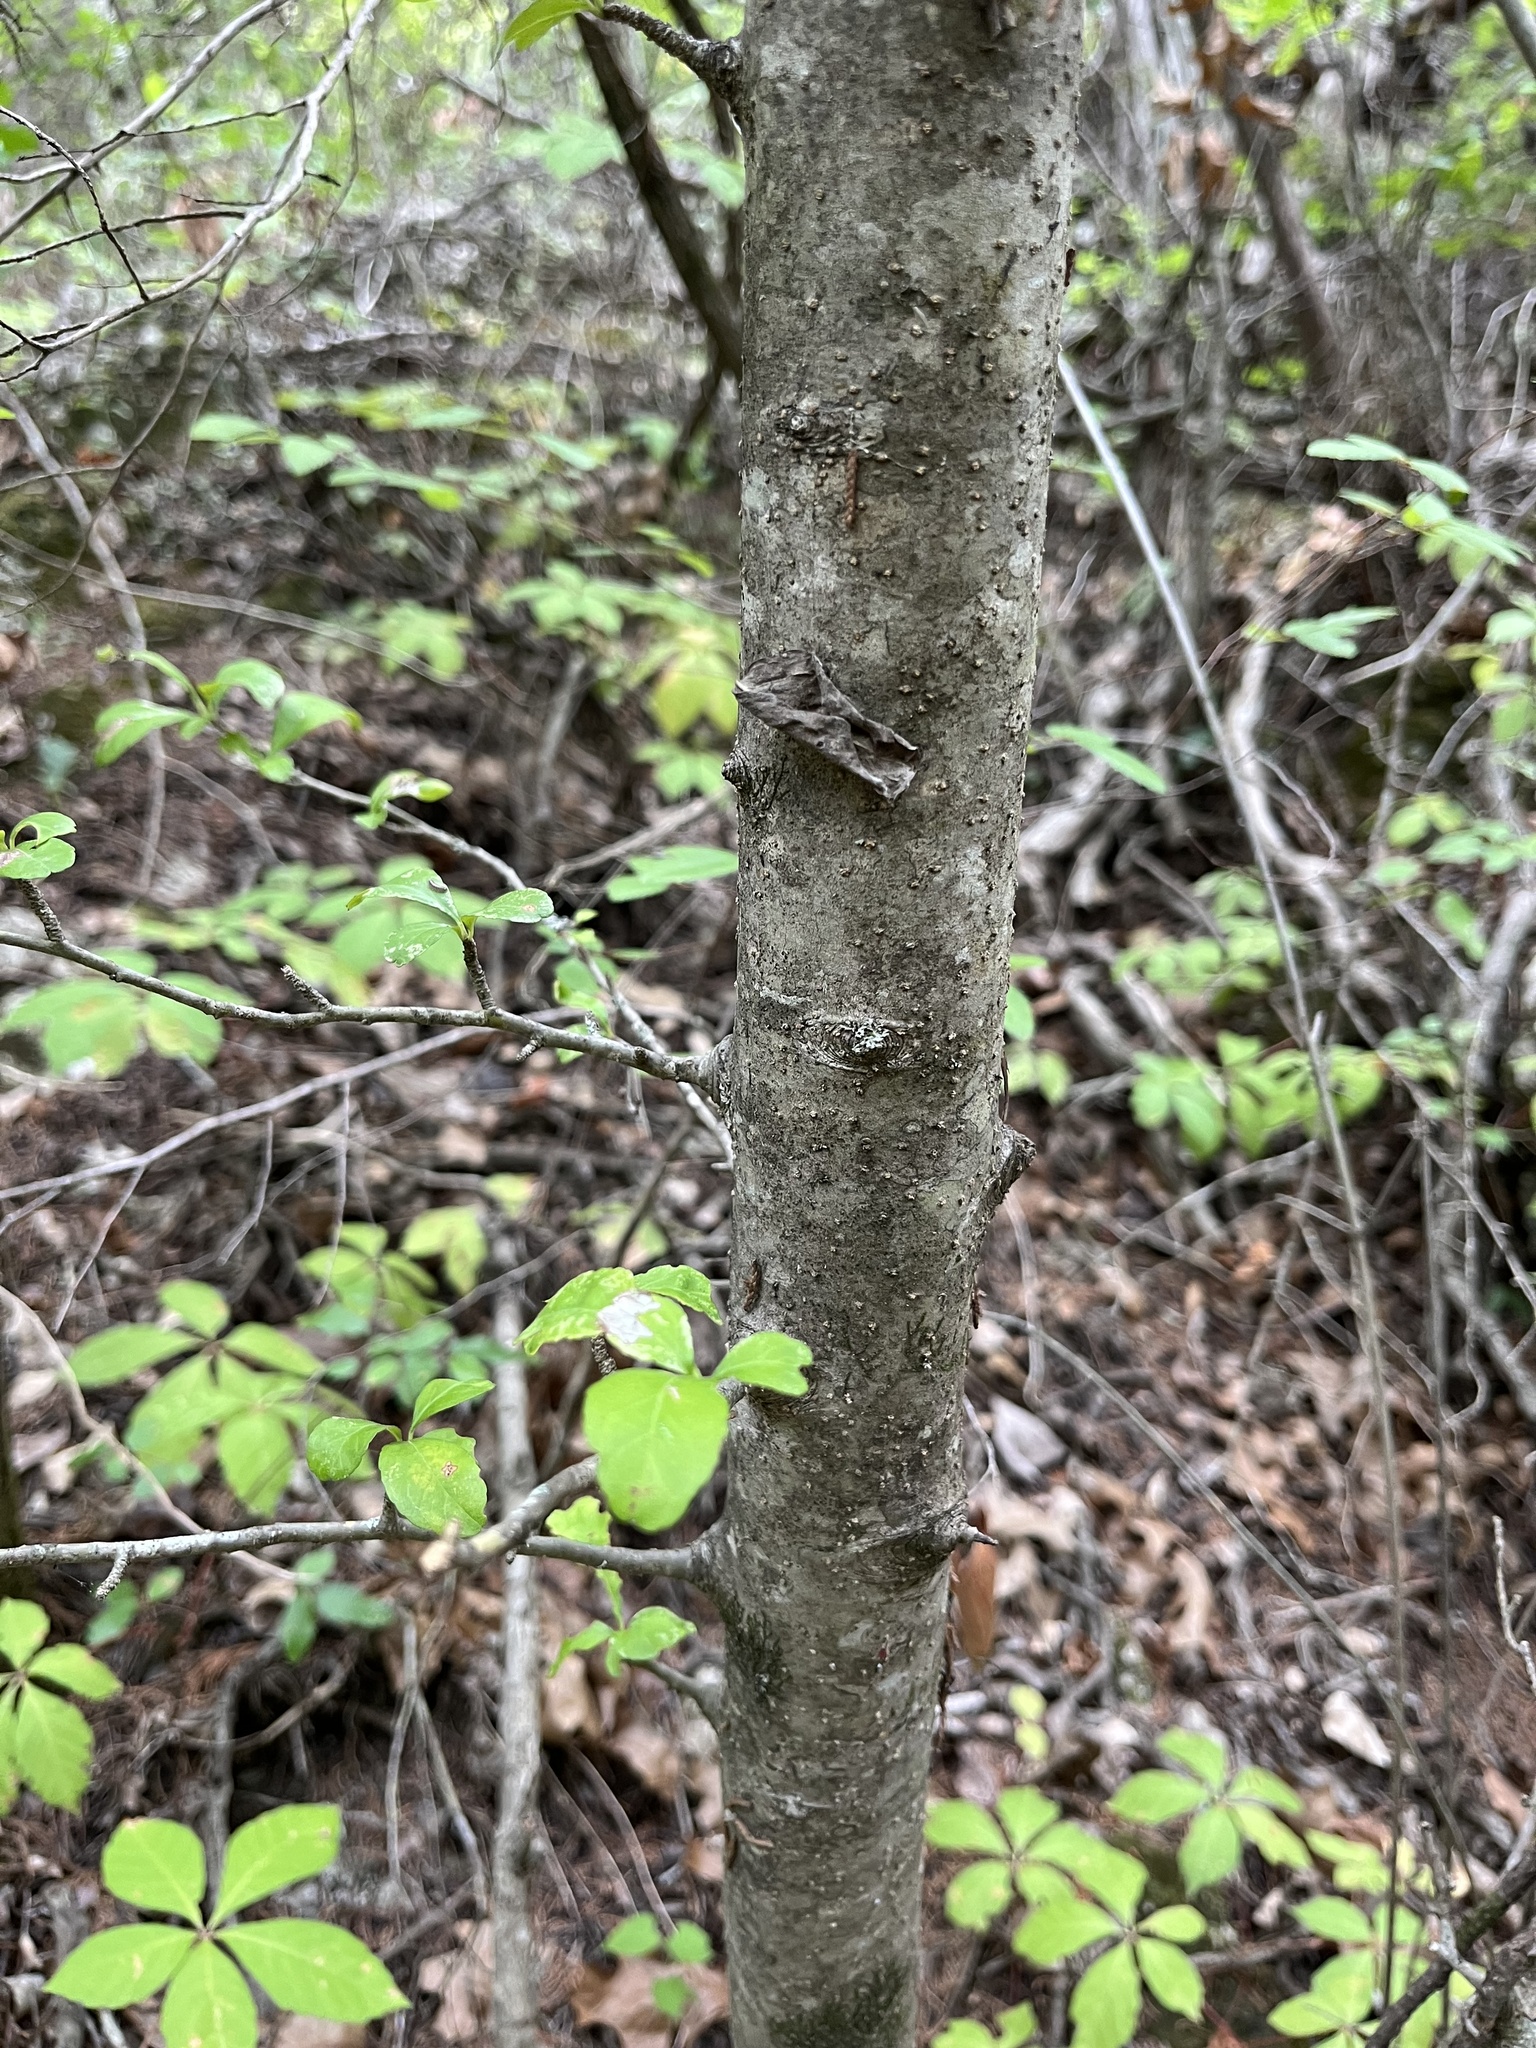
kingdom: Plantae
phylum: Tracheophyta
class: Magnoliopsida
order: Aquifoliales
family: Aquifoliaceae
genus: Ilex
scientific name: Ilex decidua
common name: Possum-haw
